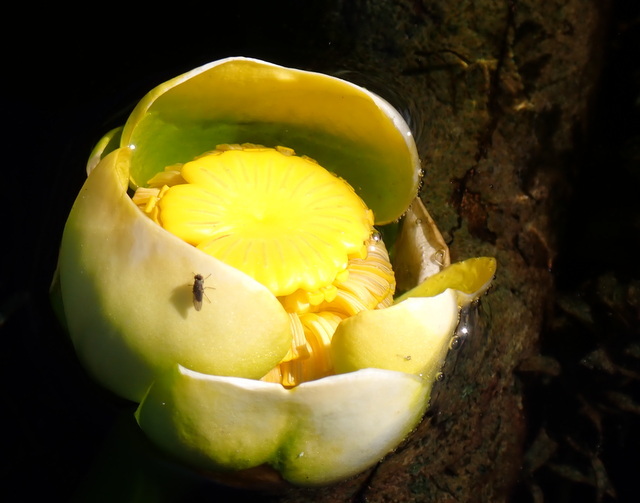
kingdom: Plantae
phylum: Tracheophyta
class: Magnoliopsida
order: Nymphaeales
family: Nymphaeaceae
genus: Nuphar
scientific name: Nuphar advena
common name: Spatter-dock
